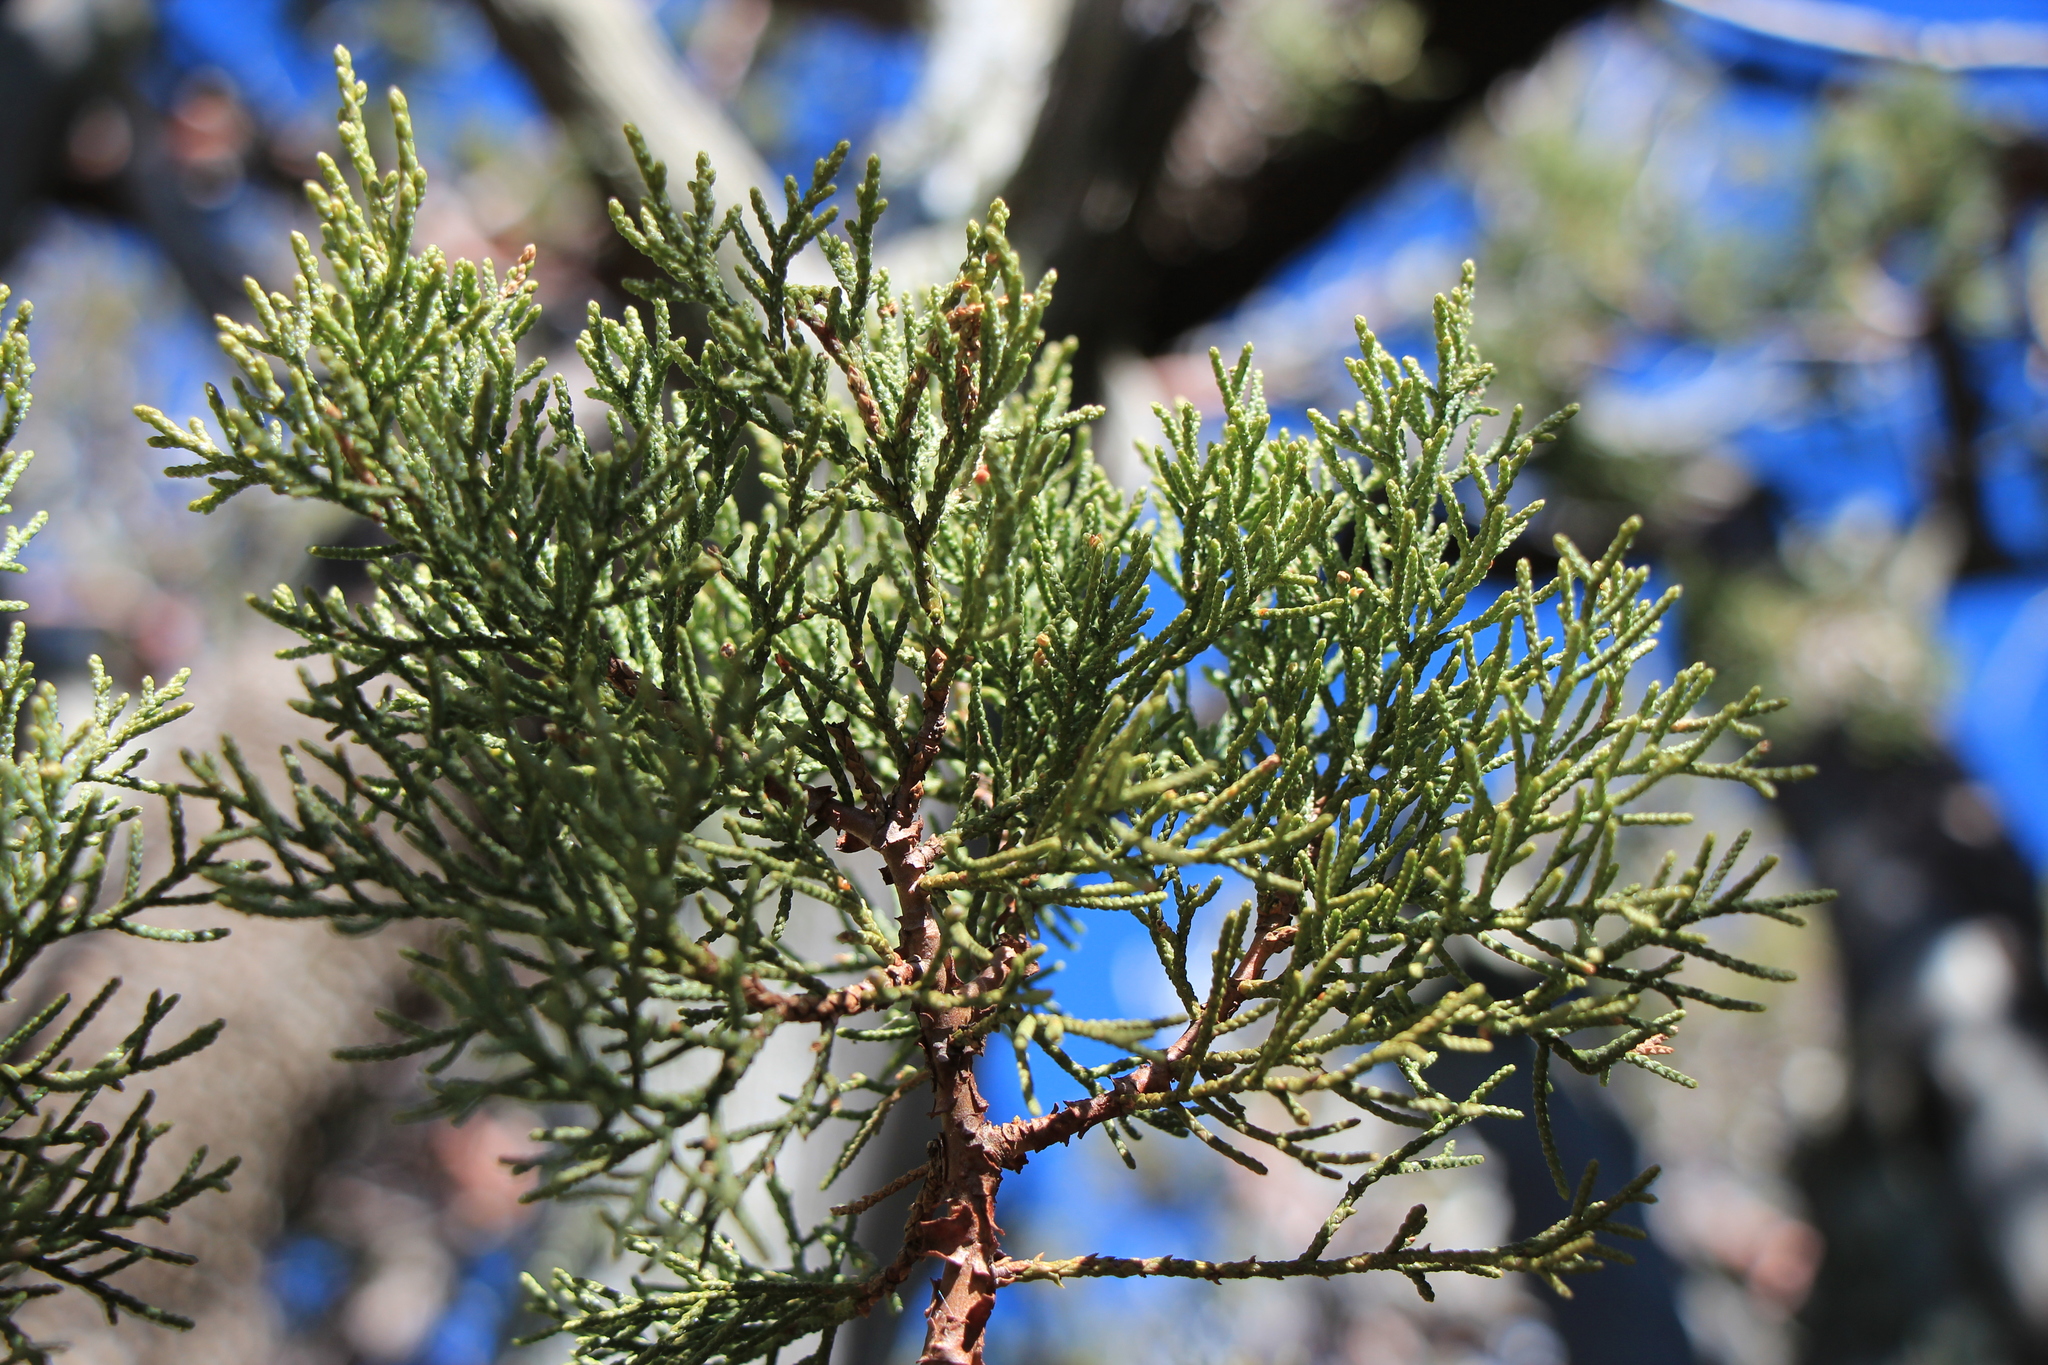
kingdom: Plantae
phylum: Tracheophyta
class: Pinopsida
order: Pinales
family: Cupressaceae
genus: Juniperus
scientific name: Juniperus deppeana
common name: Alligator juniper
